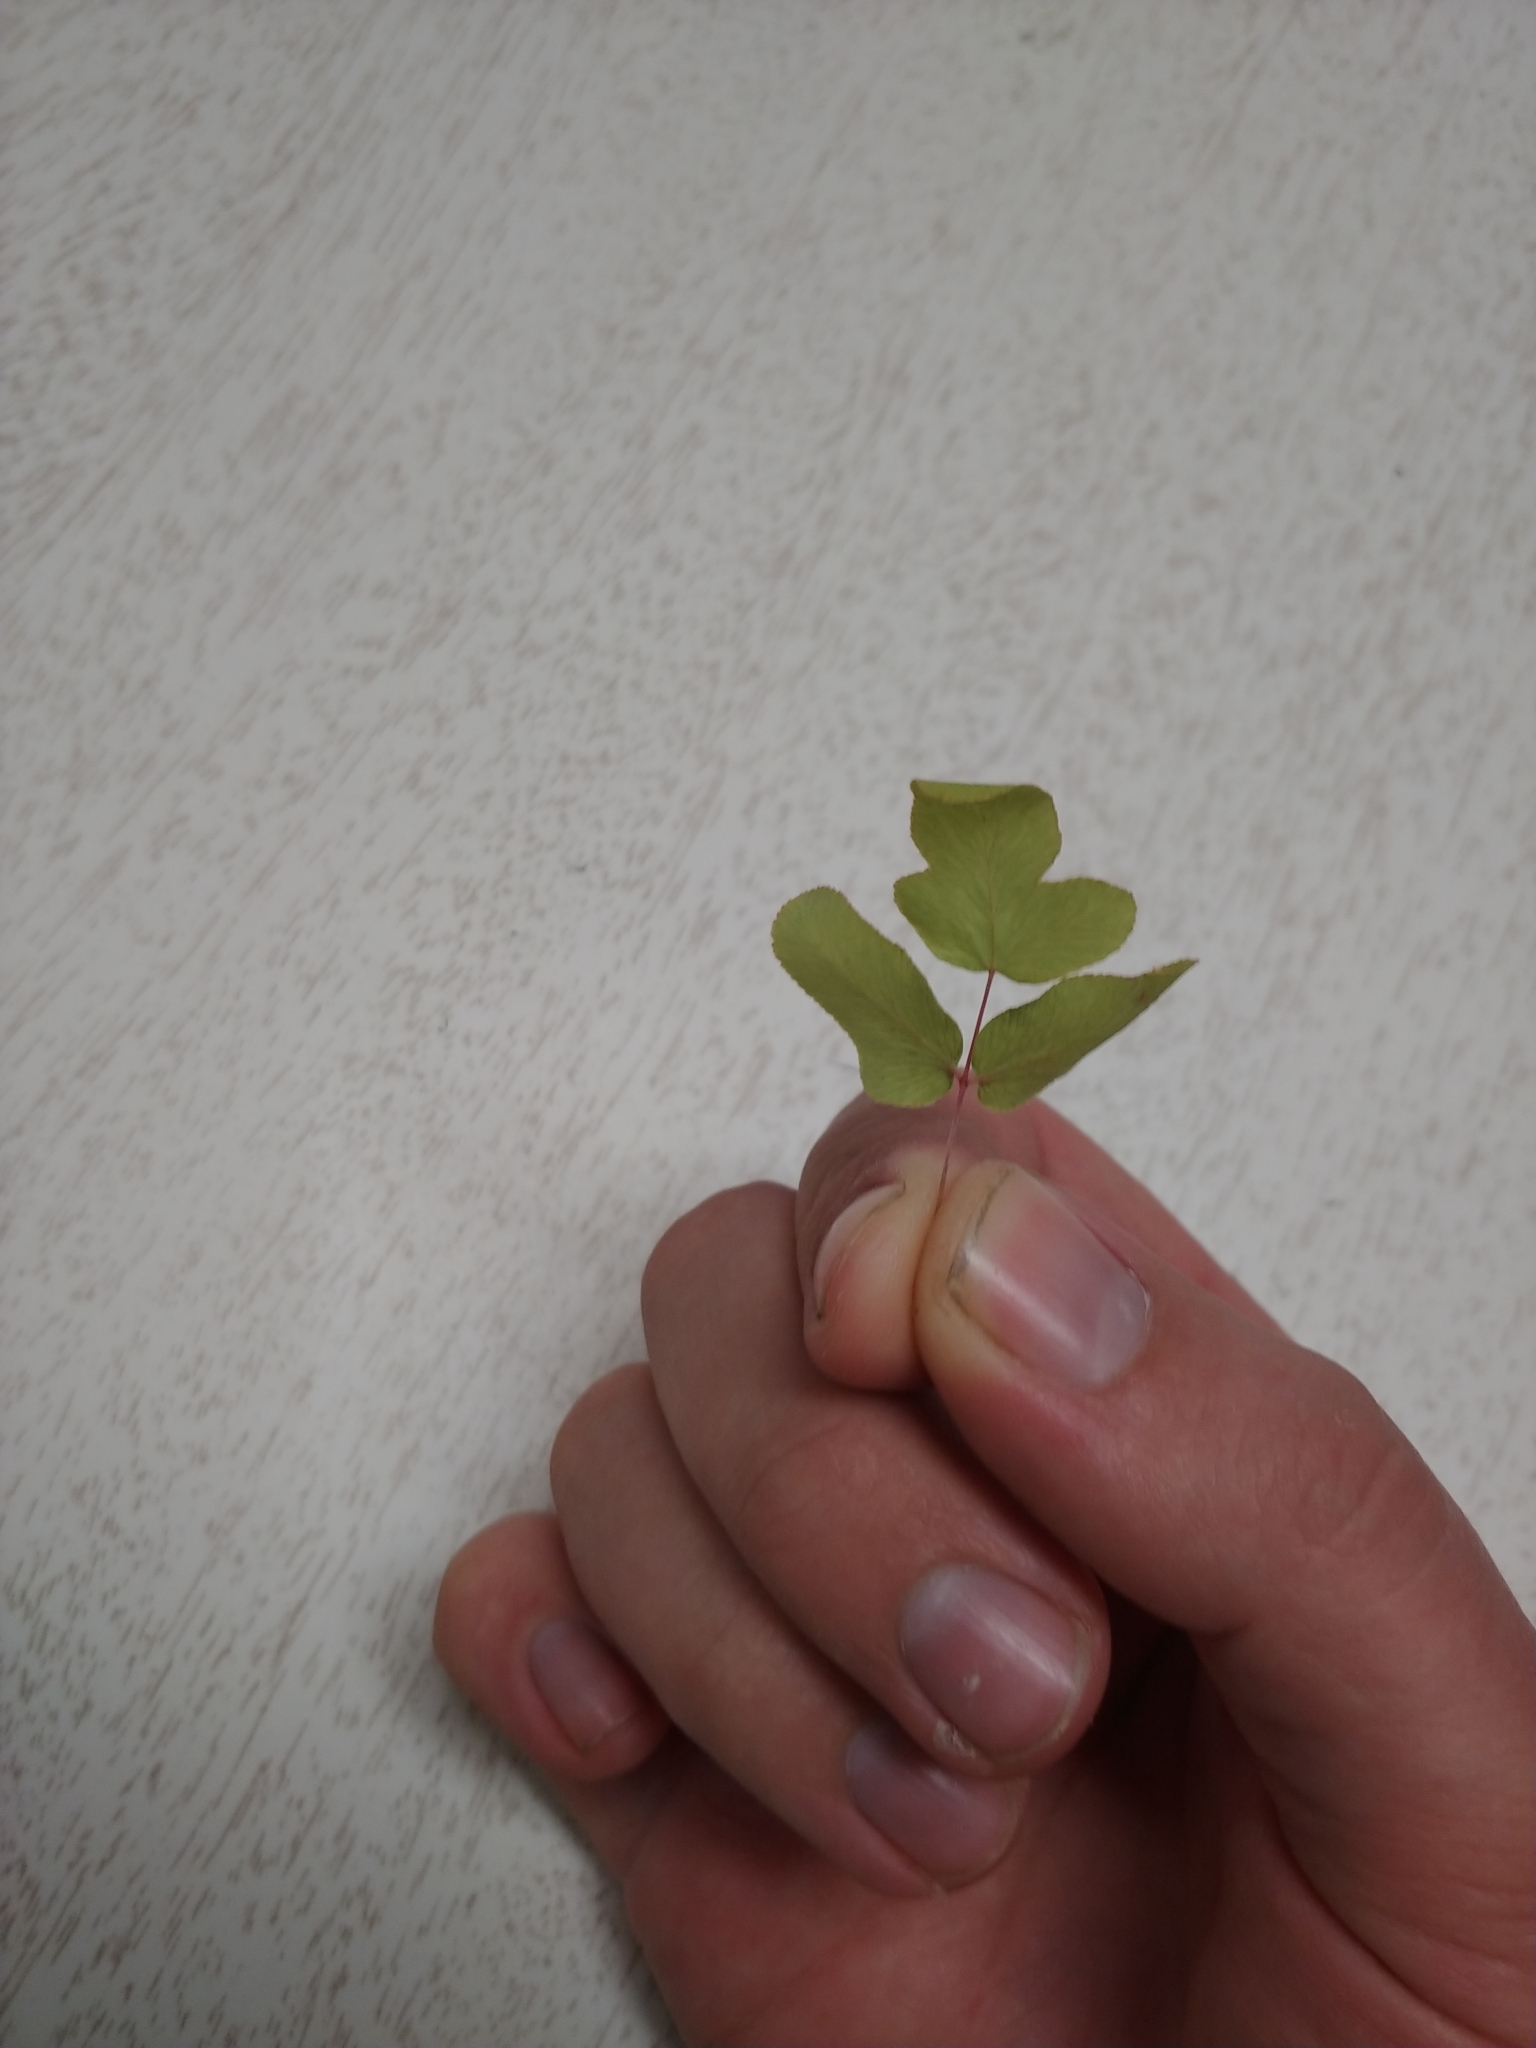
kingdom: Plantae
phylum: Tracheophyta
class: Polypodiopsida
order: Osmundales
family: Osmundaceae
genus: Osmunda
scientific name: Osmunda spectabilis
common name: American royal fern
